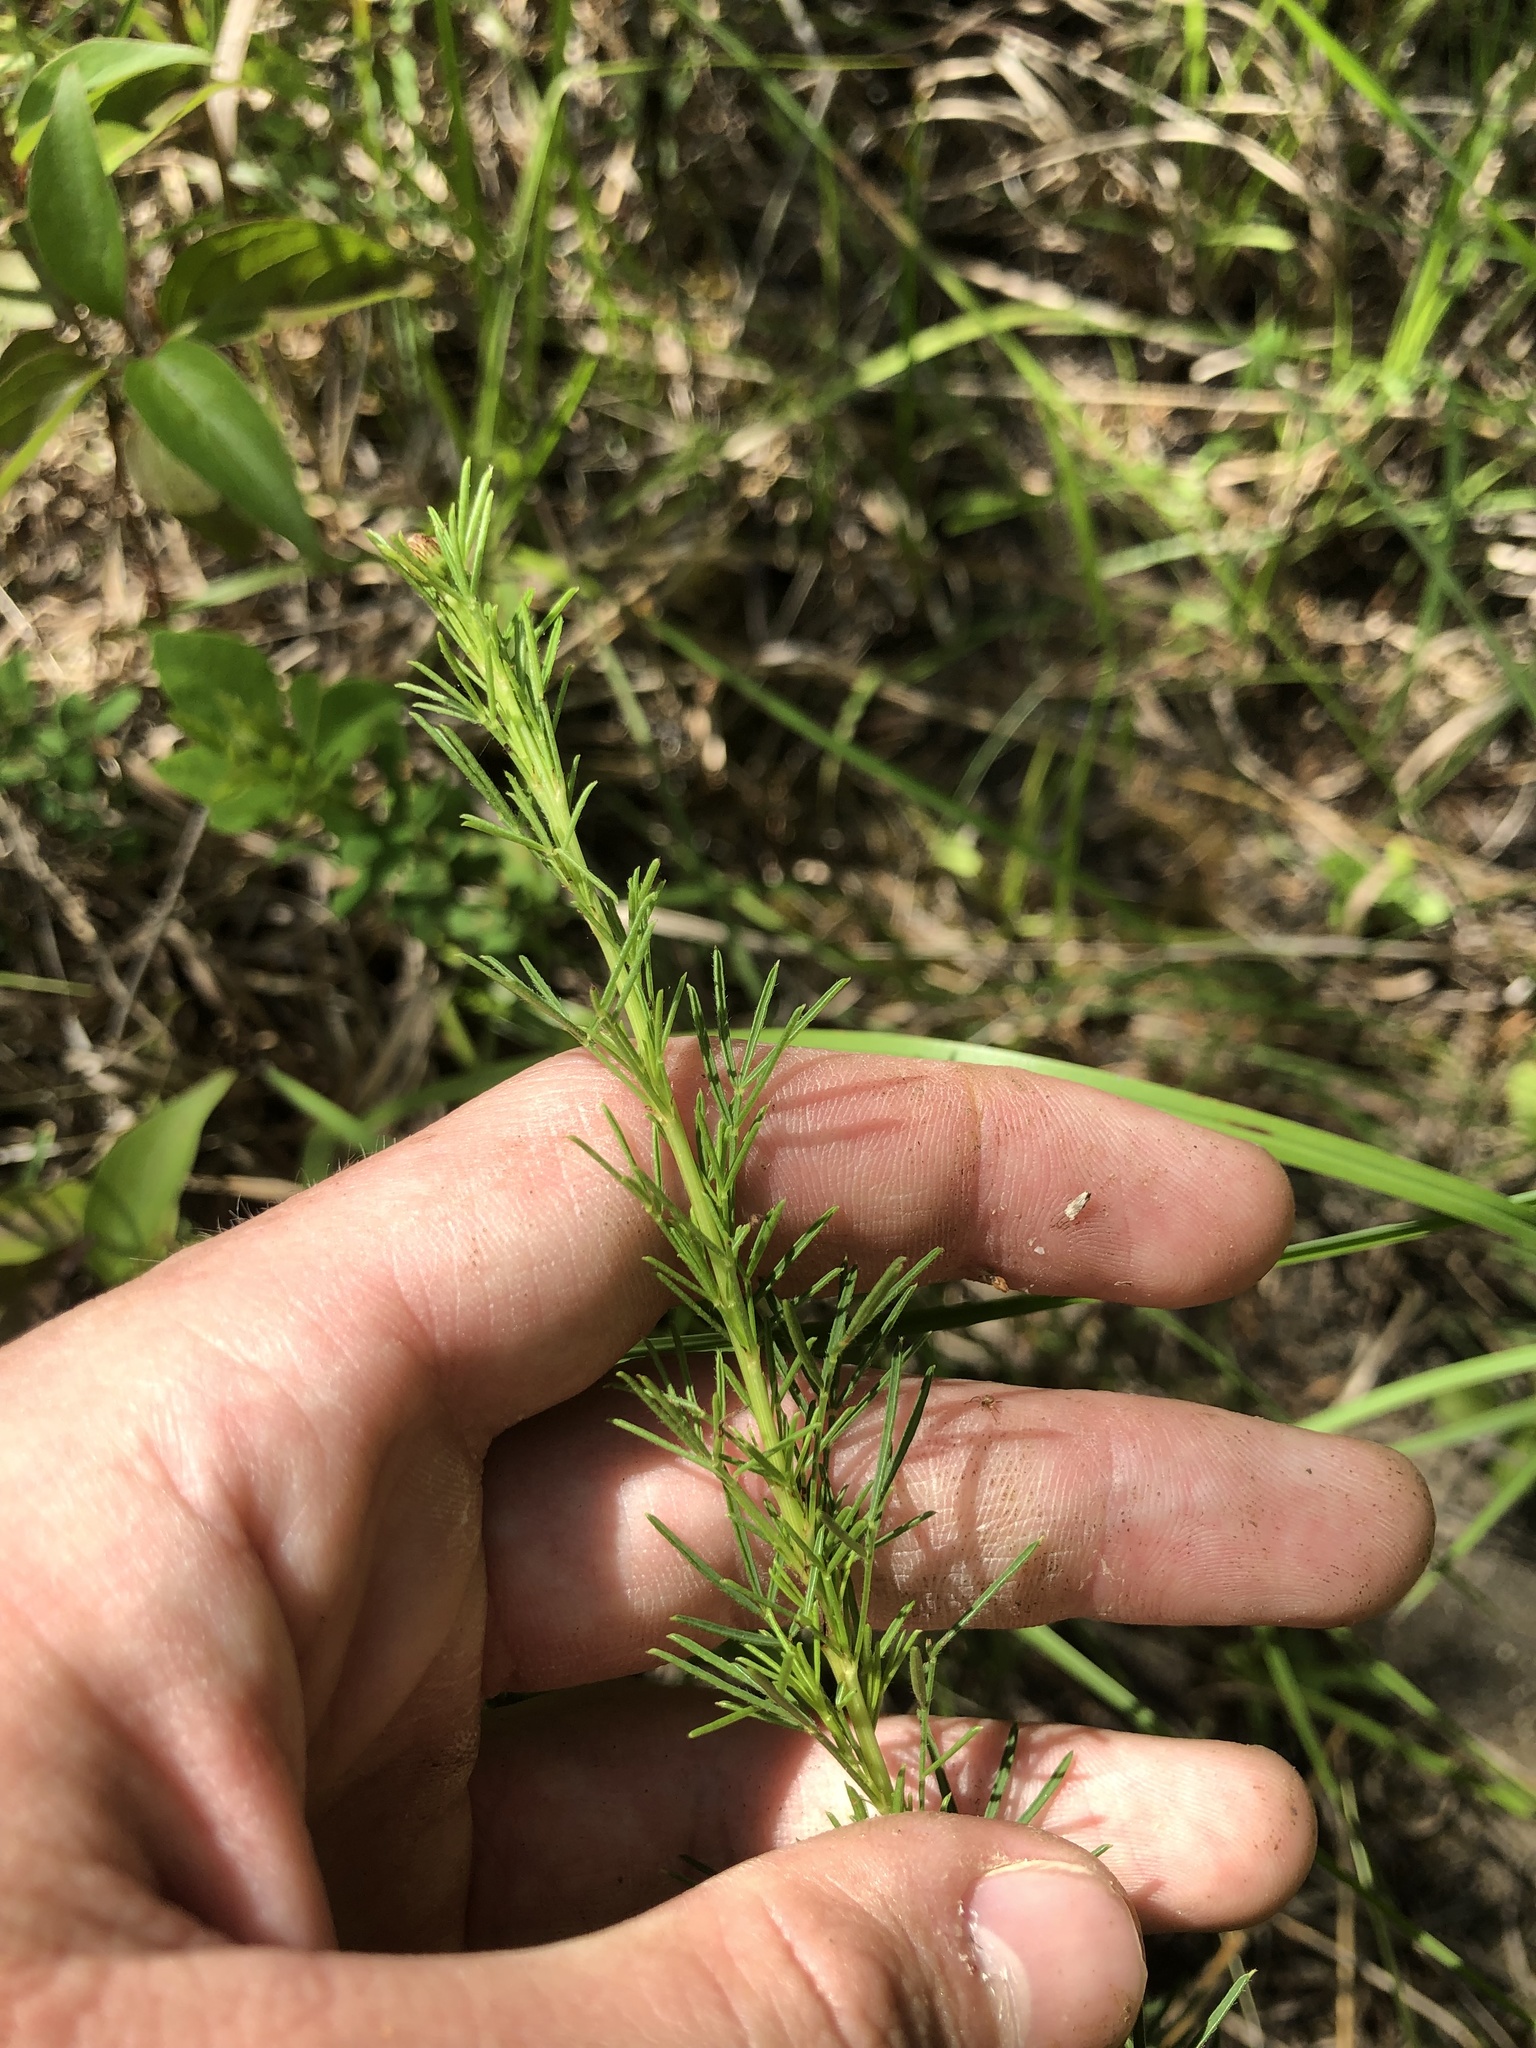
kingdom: Plantae
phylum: Tracheophyta
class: Magnoliopsida
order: Fabales
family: Fabaceae
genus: Dalea
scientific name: Dalea purpurea
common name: Purple prairie-clover
